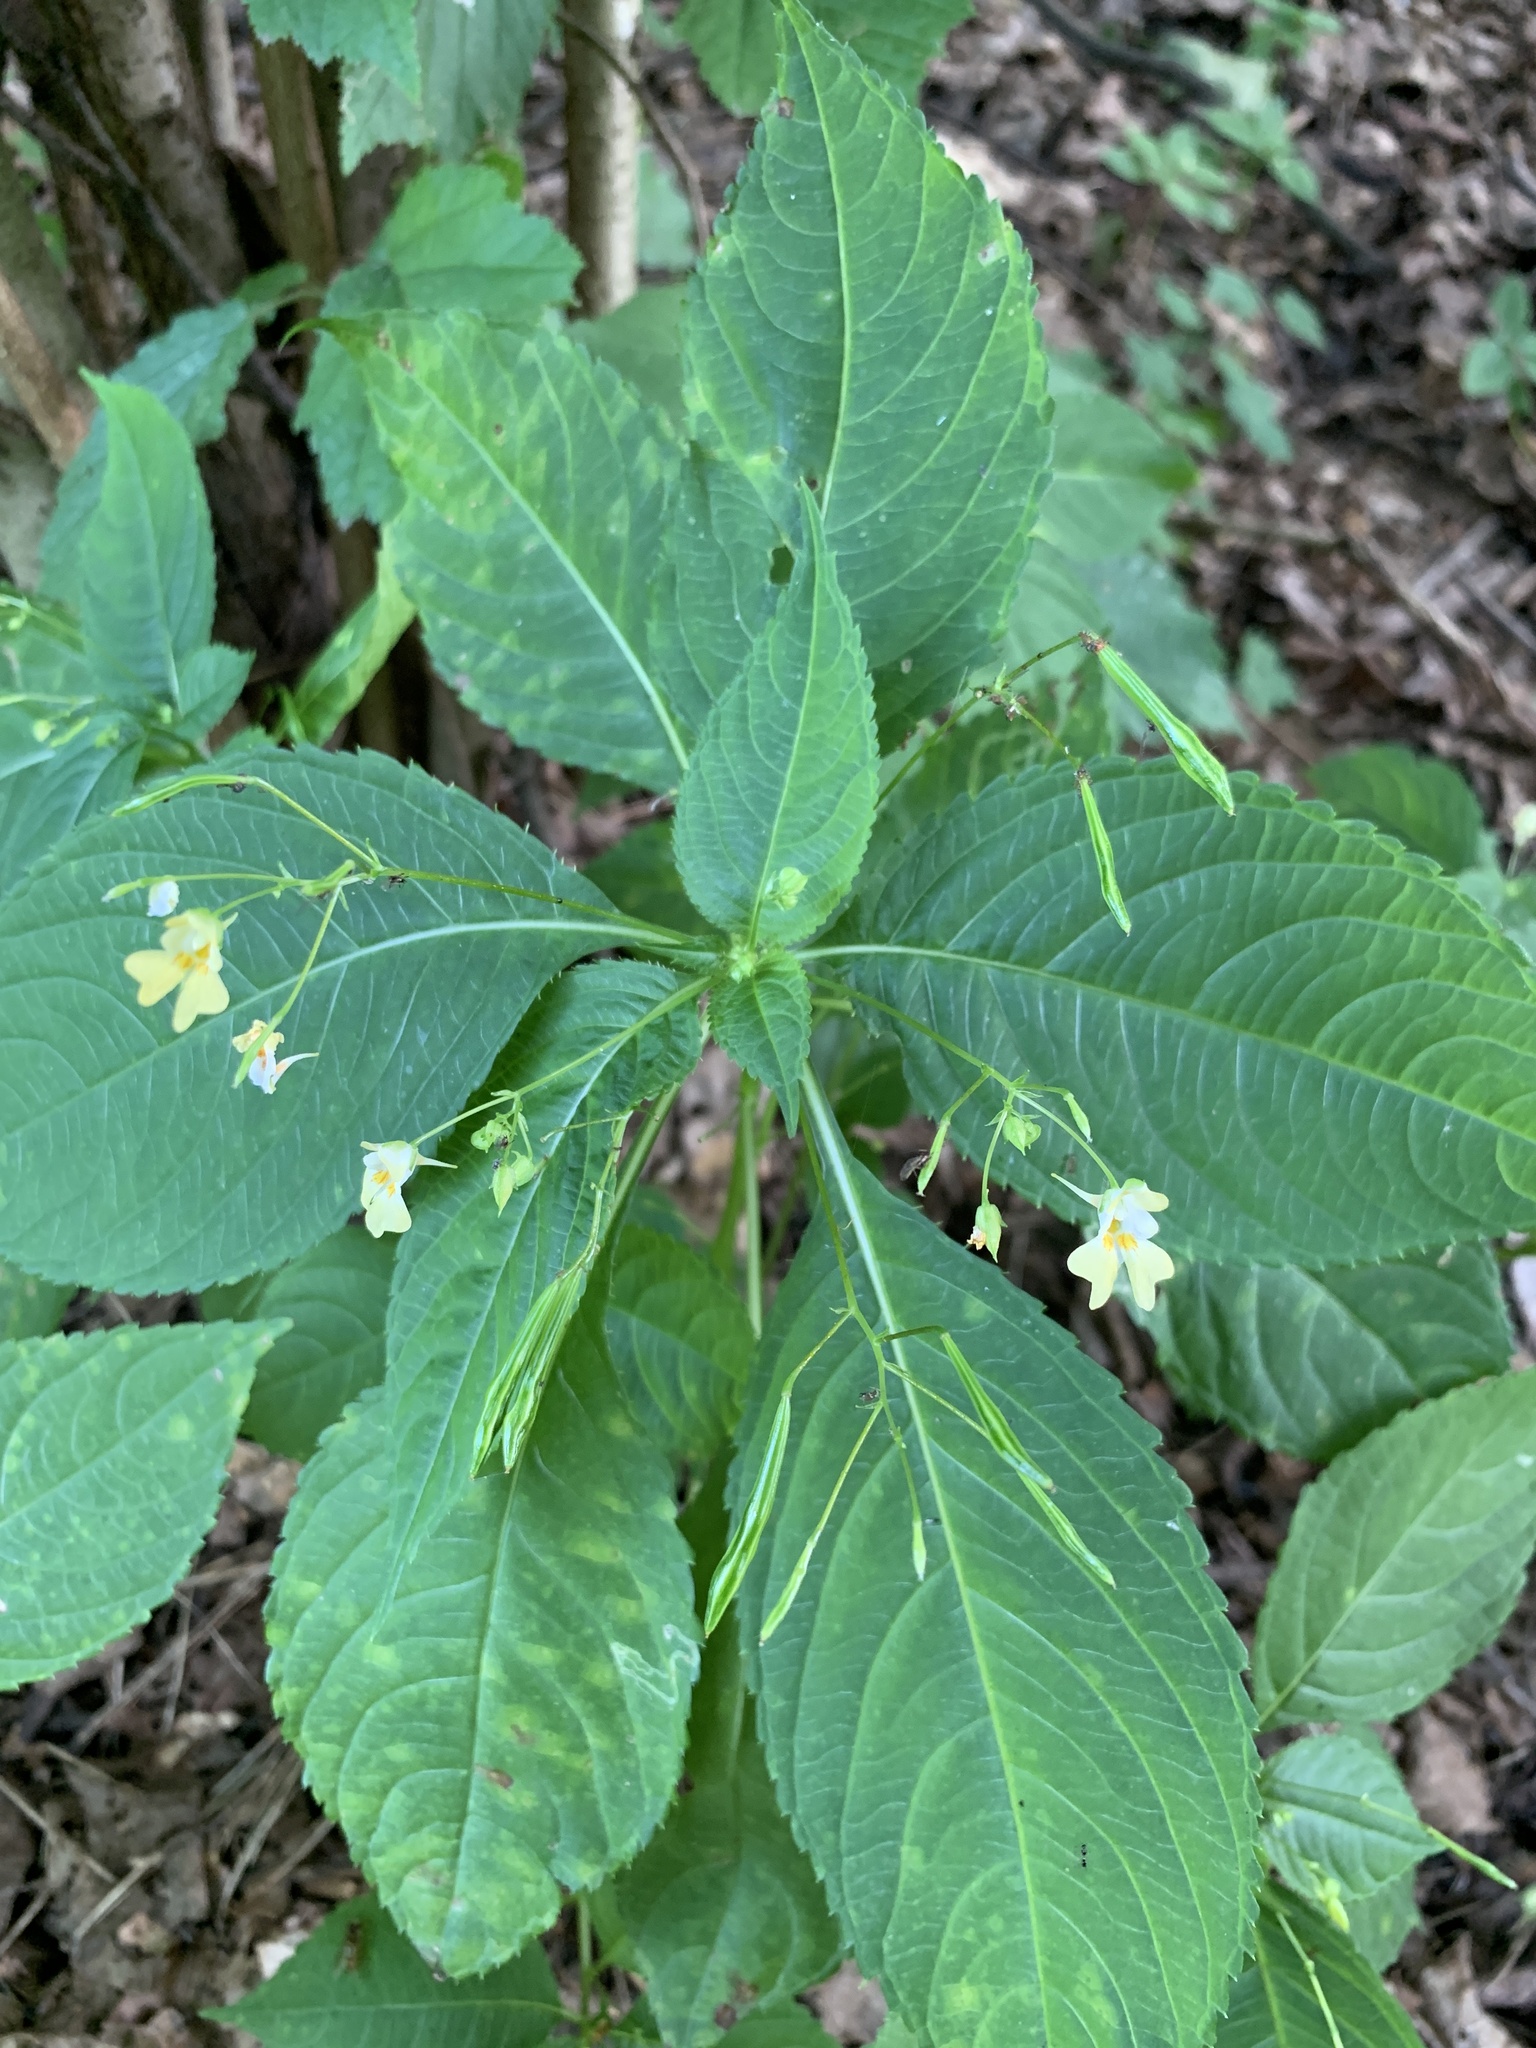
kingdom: Plantae
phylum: Tracheophyta
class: Magnoliopsida
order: Ericales
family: Balsaminaceae
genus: Impatiens
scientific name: Impatiens parviflora
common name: Small balsam
